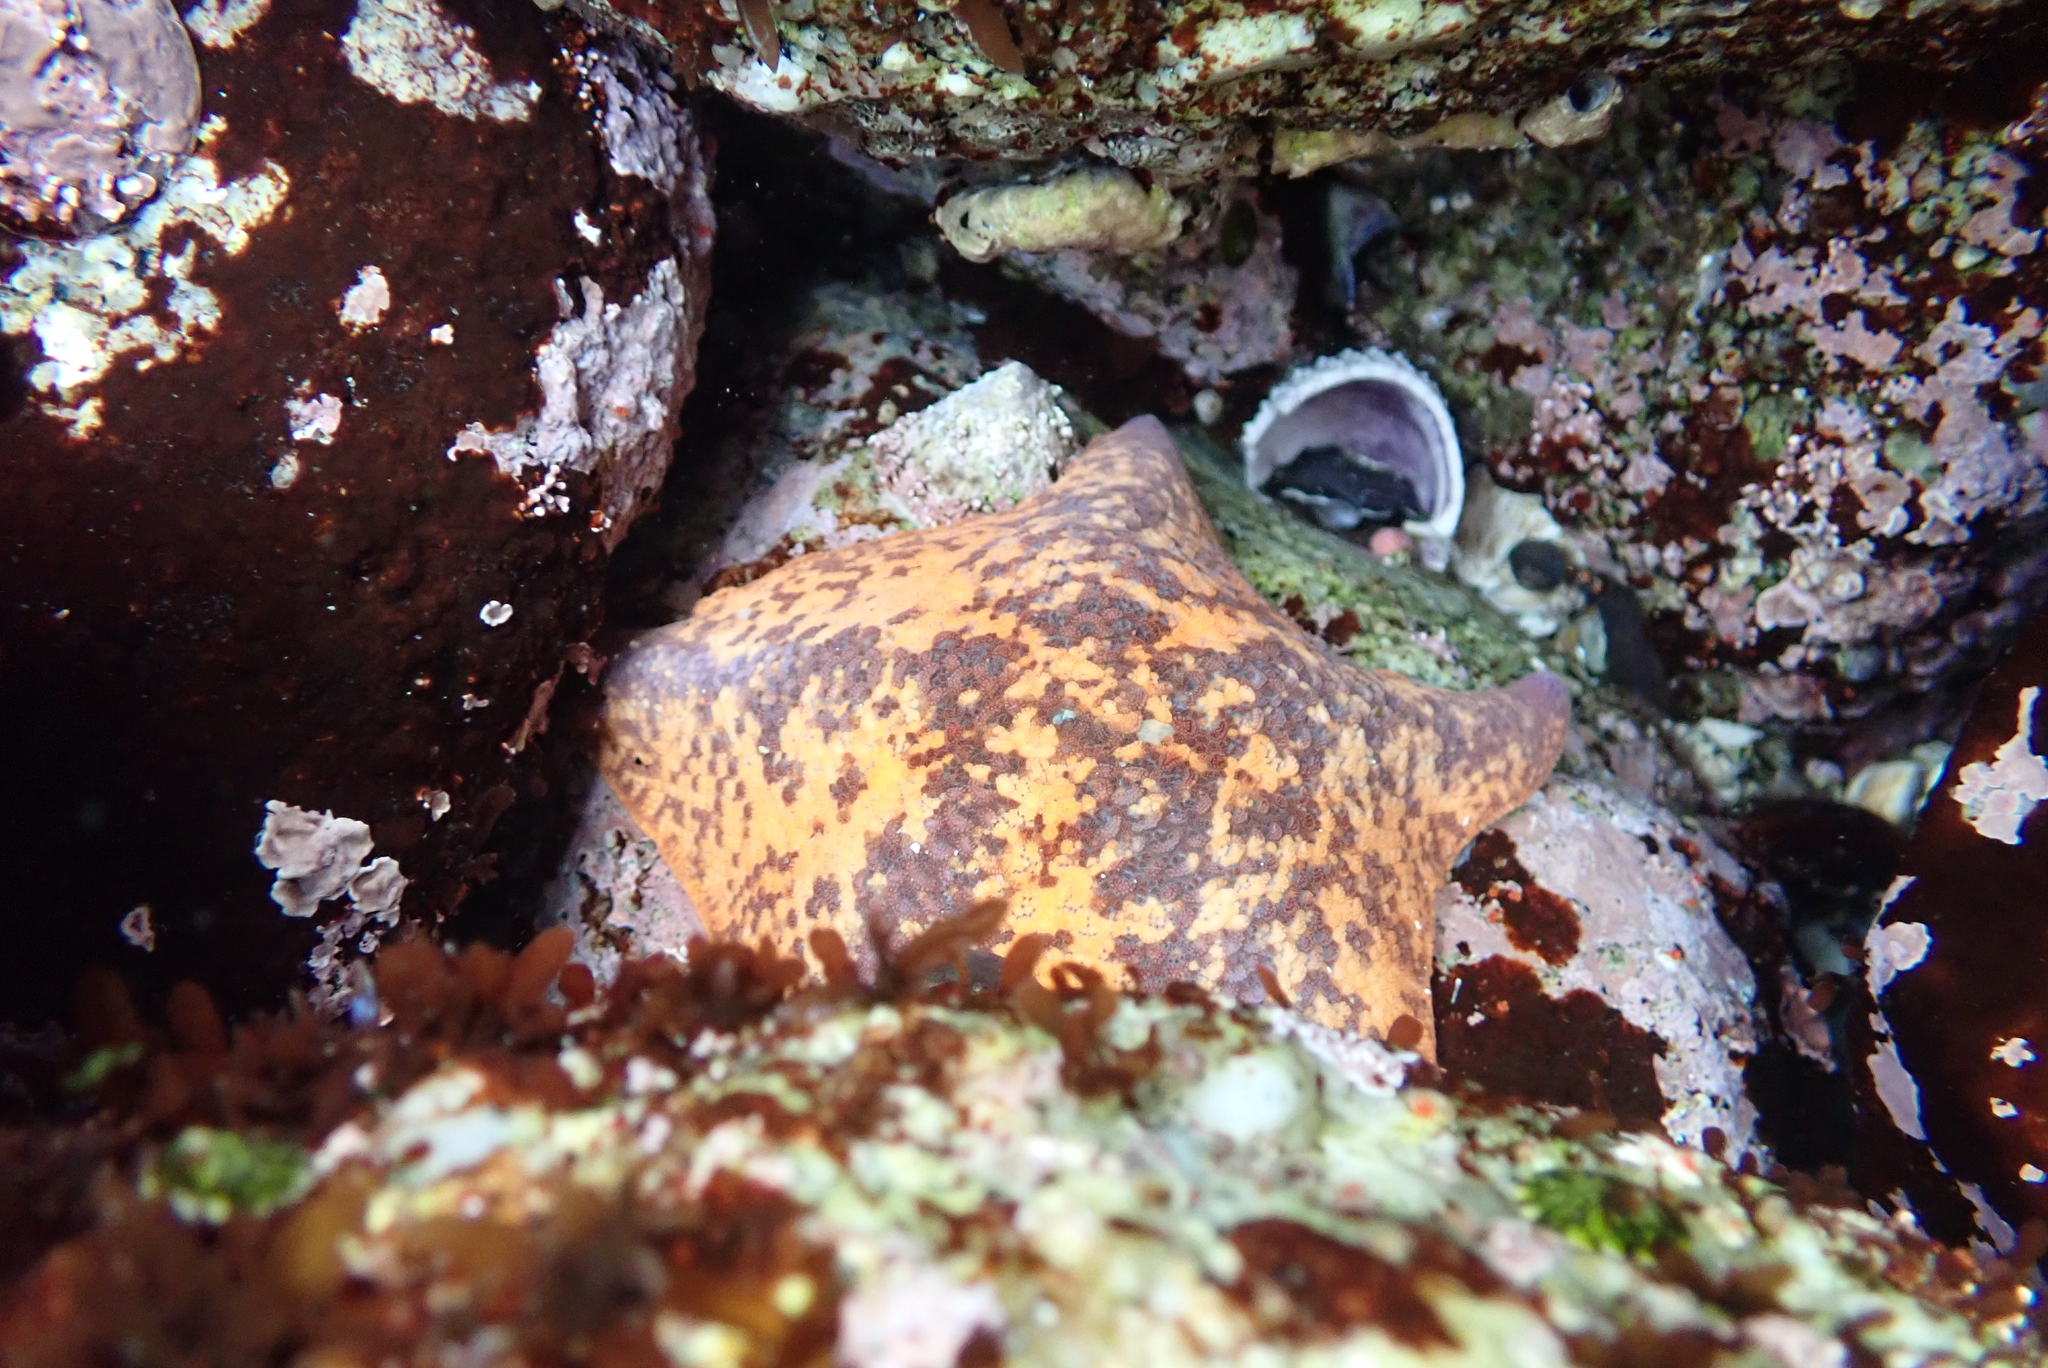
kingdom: Animalia
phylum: Echinodermata
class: Asteroidea
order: Valvatida
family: Asterinidae
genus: Patiria
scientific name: Patiria miniata
